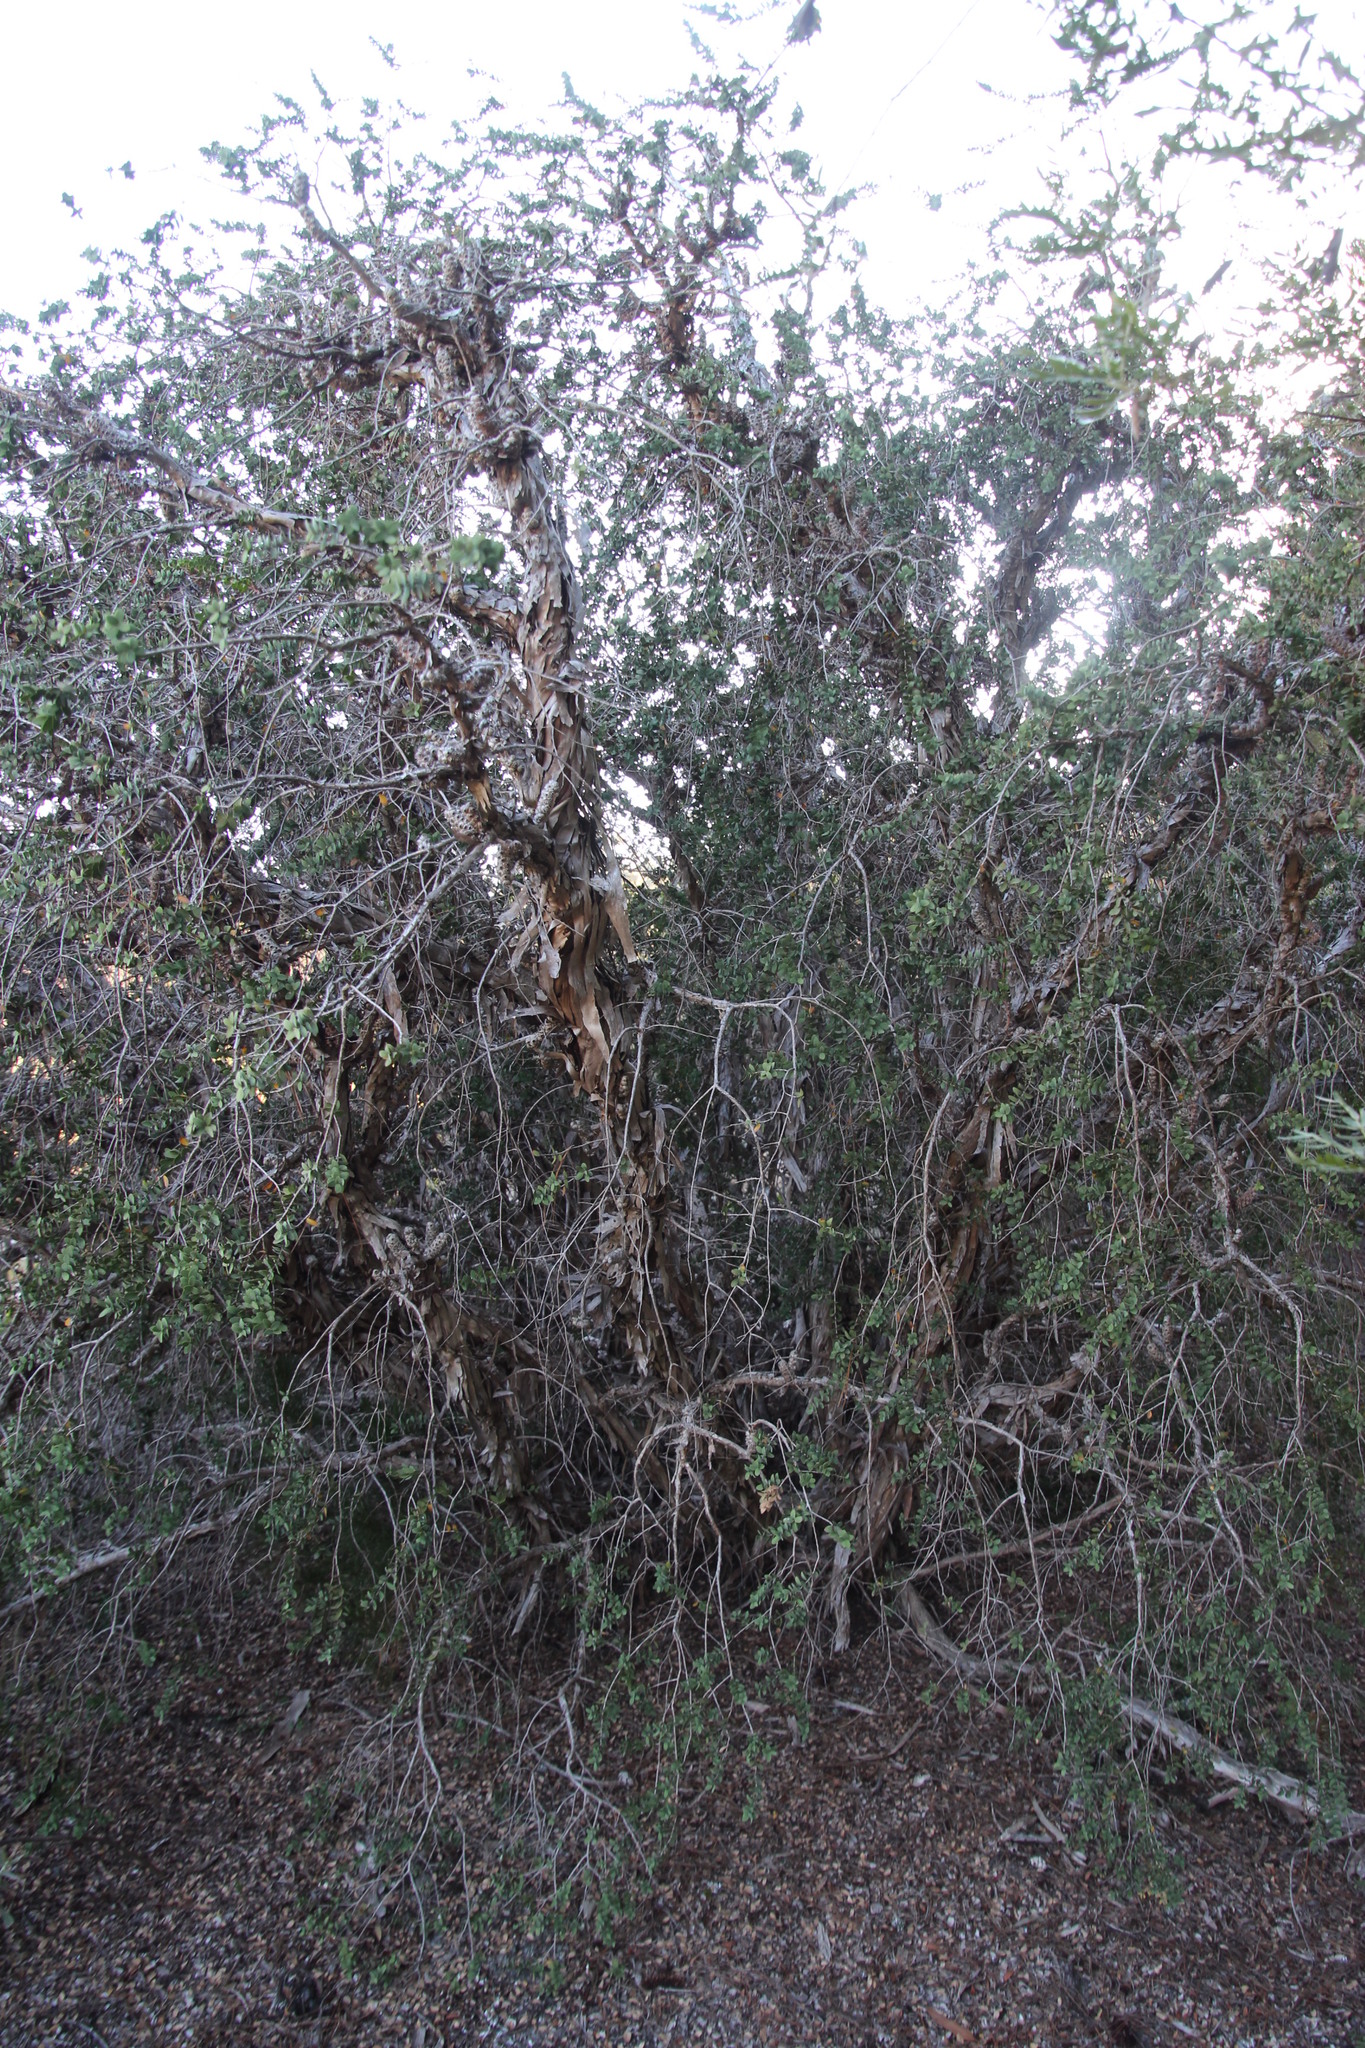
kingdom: Plantae
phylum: Tracheophyta
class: Magnoliopsida
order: Myrtales
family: Myrtaceae
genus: Melaleuca
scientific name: Melaleuca elliptica
